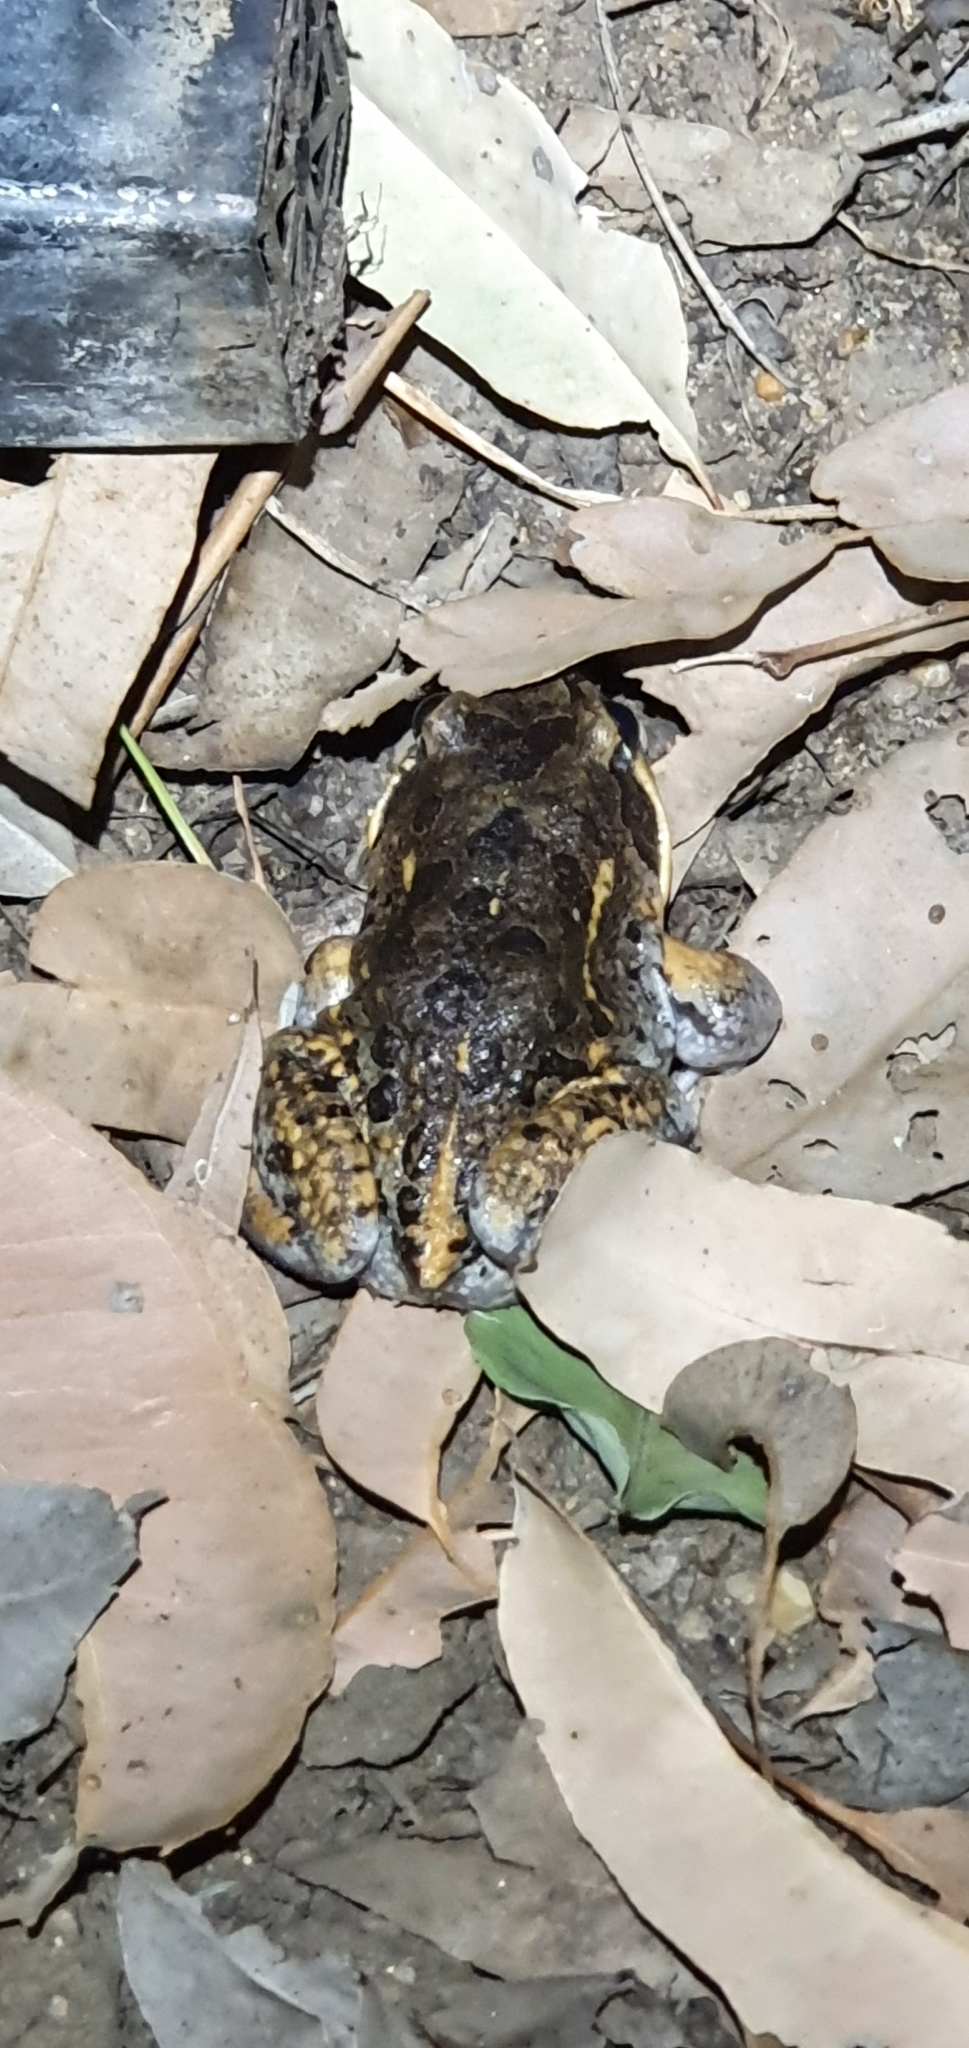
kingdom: Animalia
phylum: Chordata
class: Amphibia
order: Anura
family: Limnodynastidae
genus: Limnodynastes
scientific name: Limnodynastes salmini
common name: Salmon-striped frog
